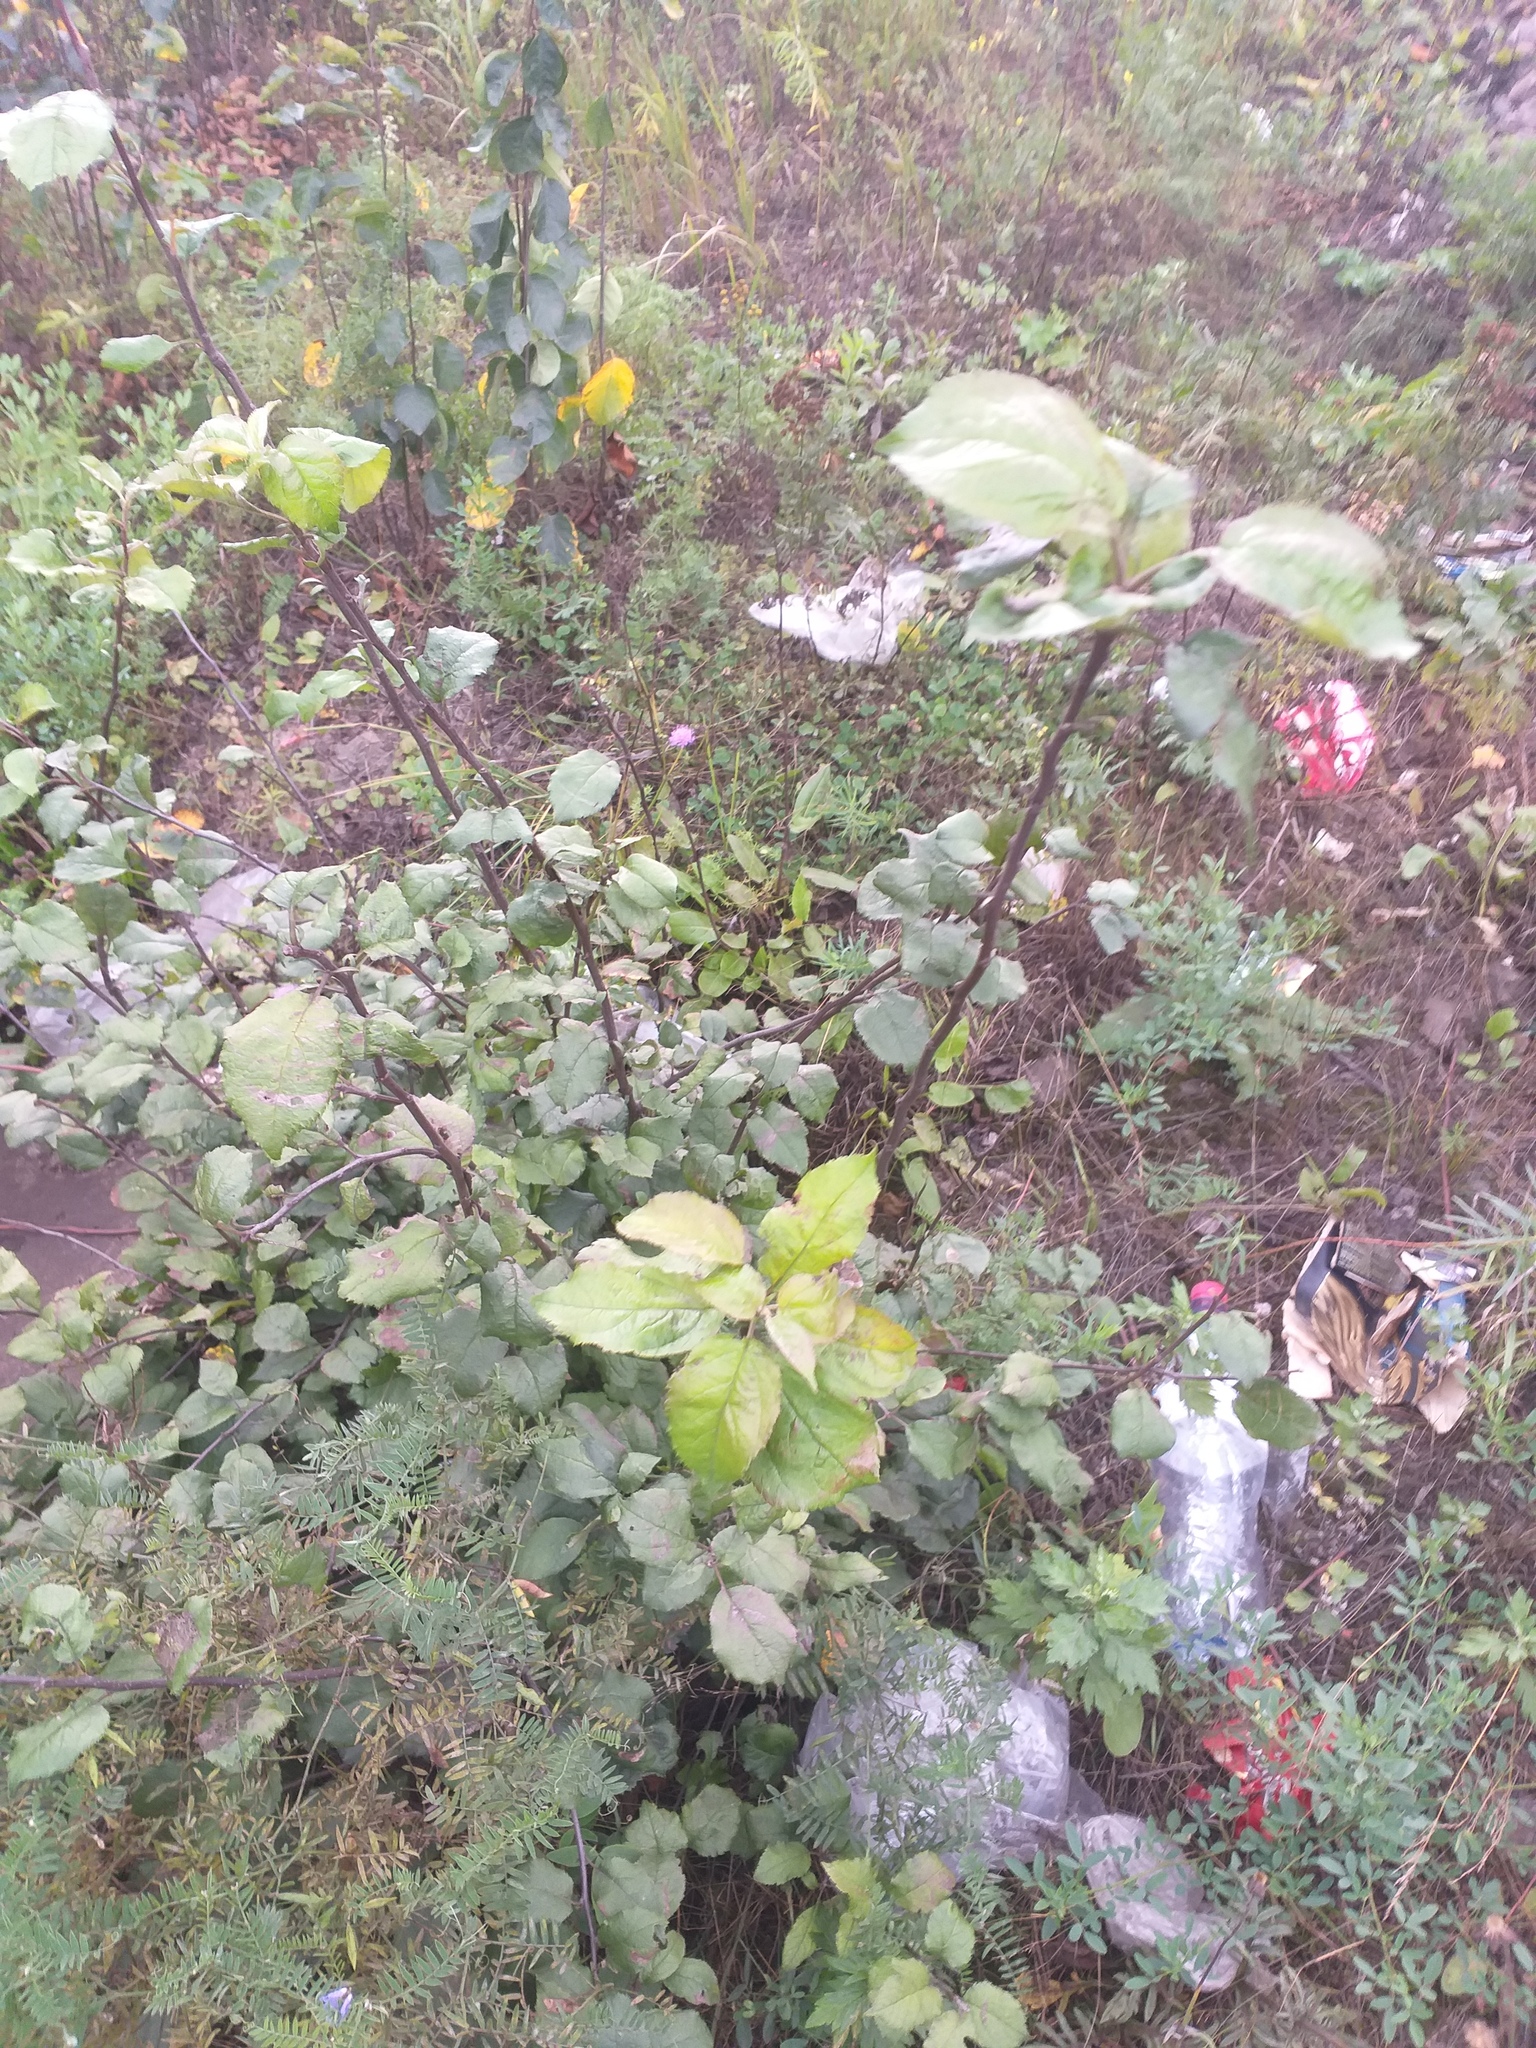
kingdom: Plantae
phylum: Tracheophyta
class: Magnoliopsida
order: Rosales
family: Rosaceae
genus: Malus
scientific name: Malus domestica
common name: Apple
